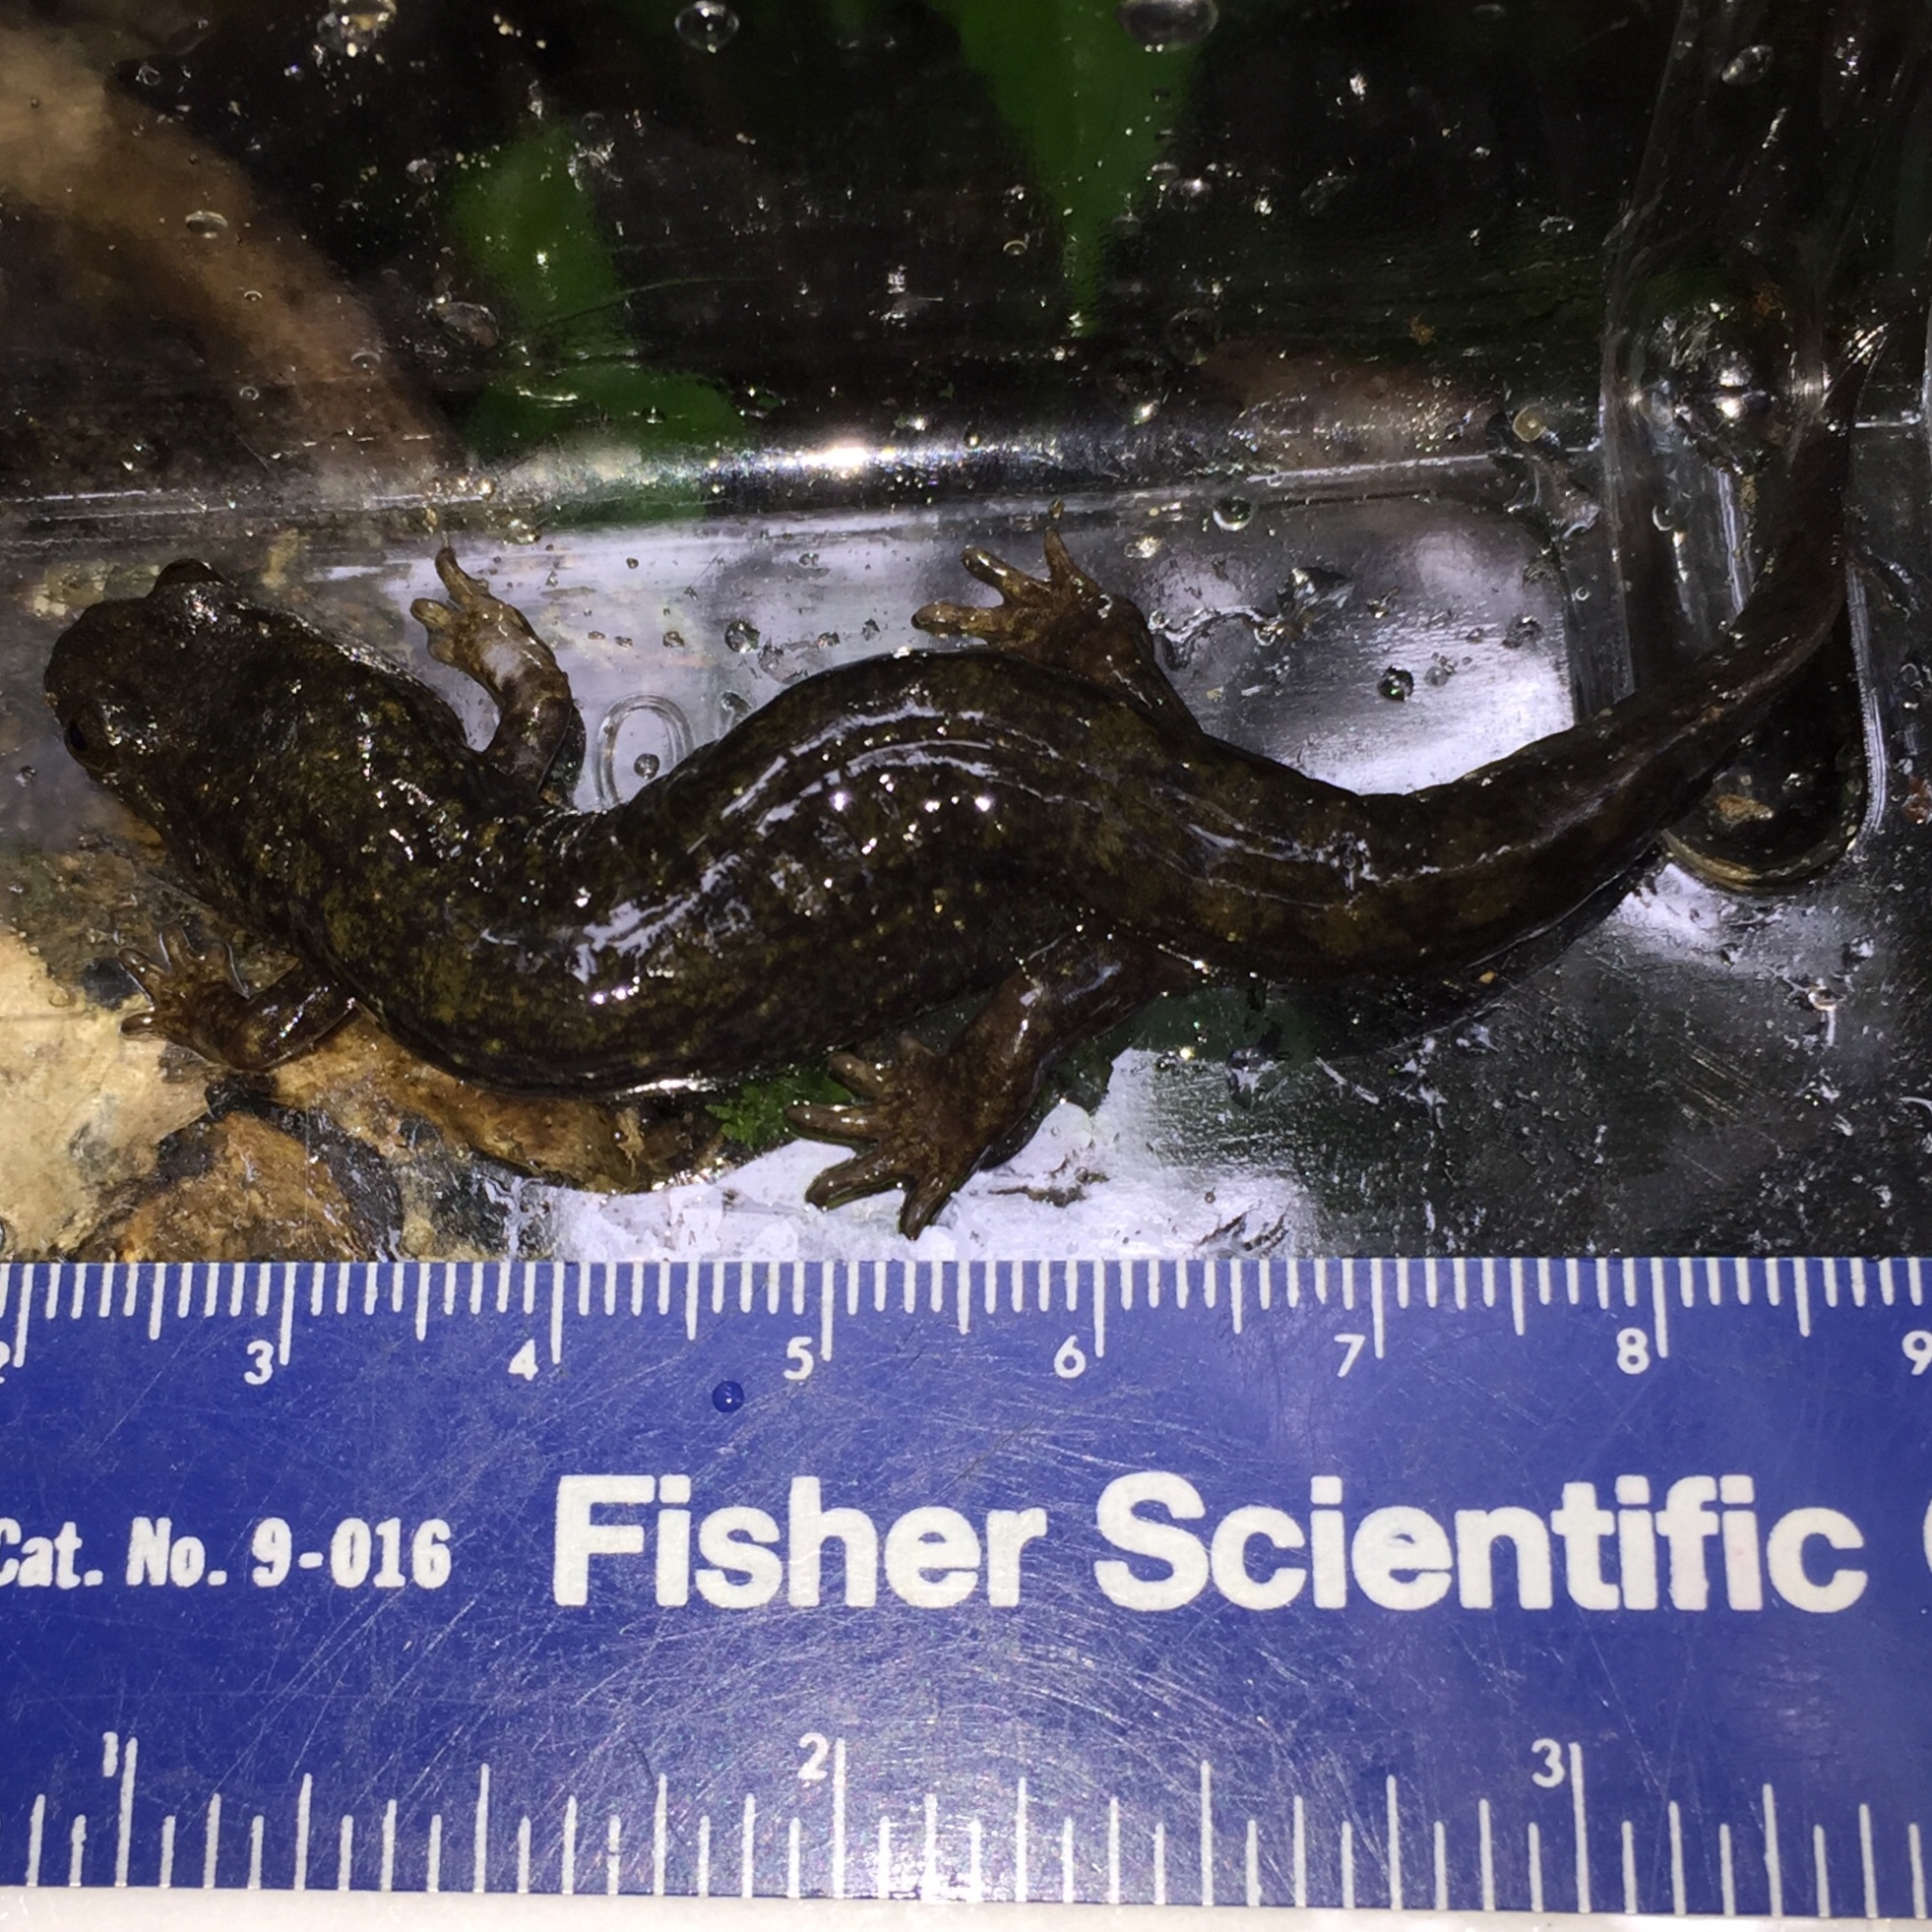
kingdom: Animalia
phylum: Chordata
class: Amphibia
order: Caudata
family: Plethodontidae
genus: Desmognathus
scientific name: Desmognathus
